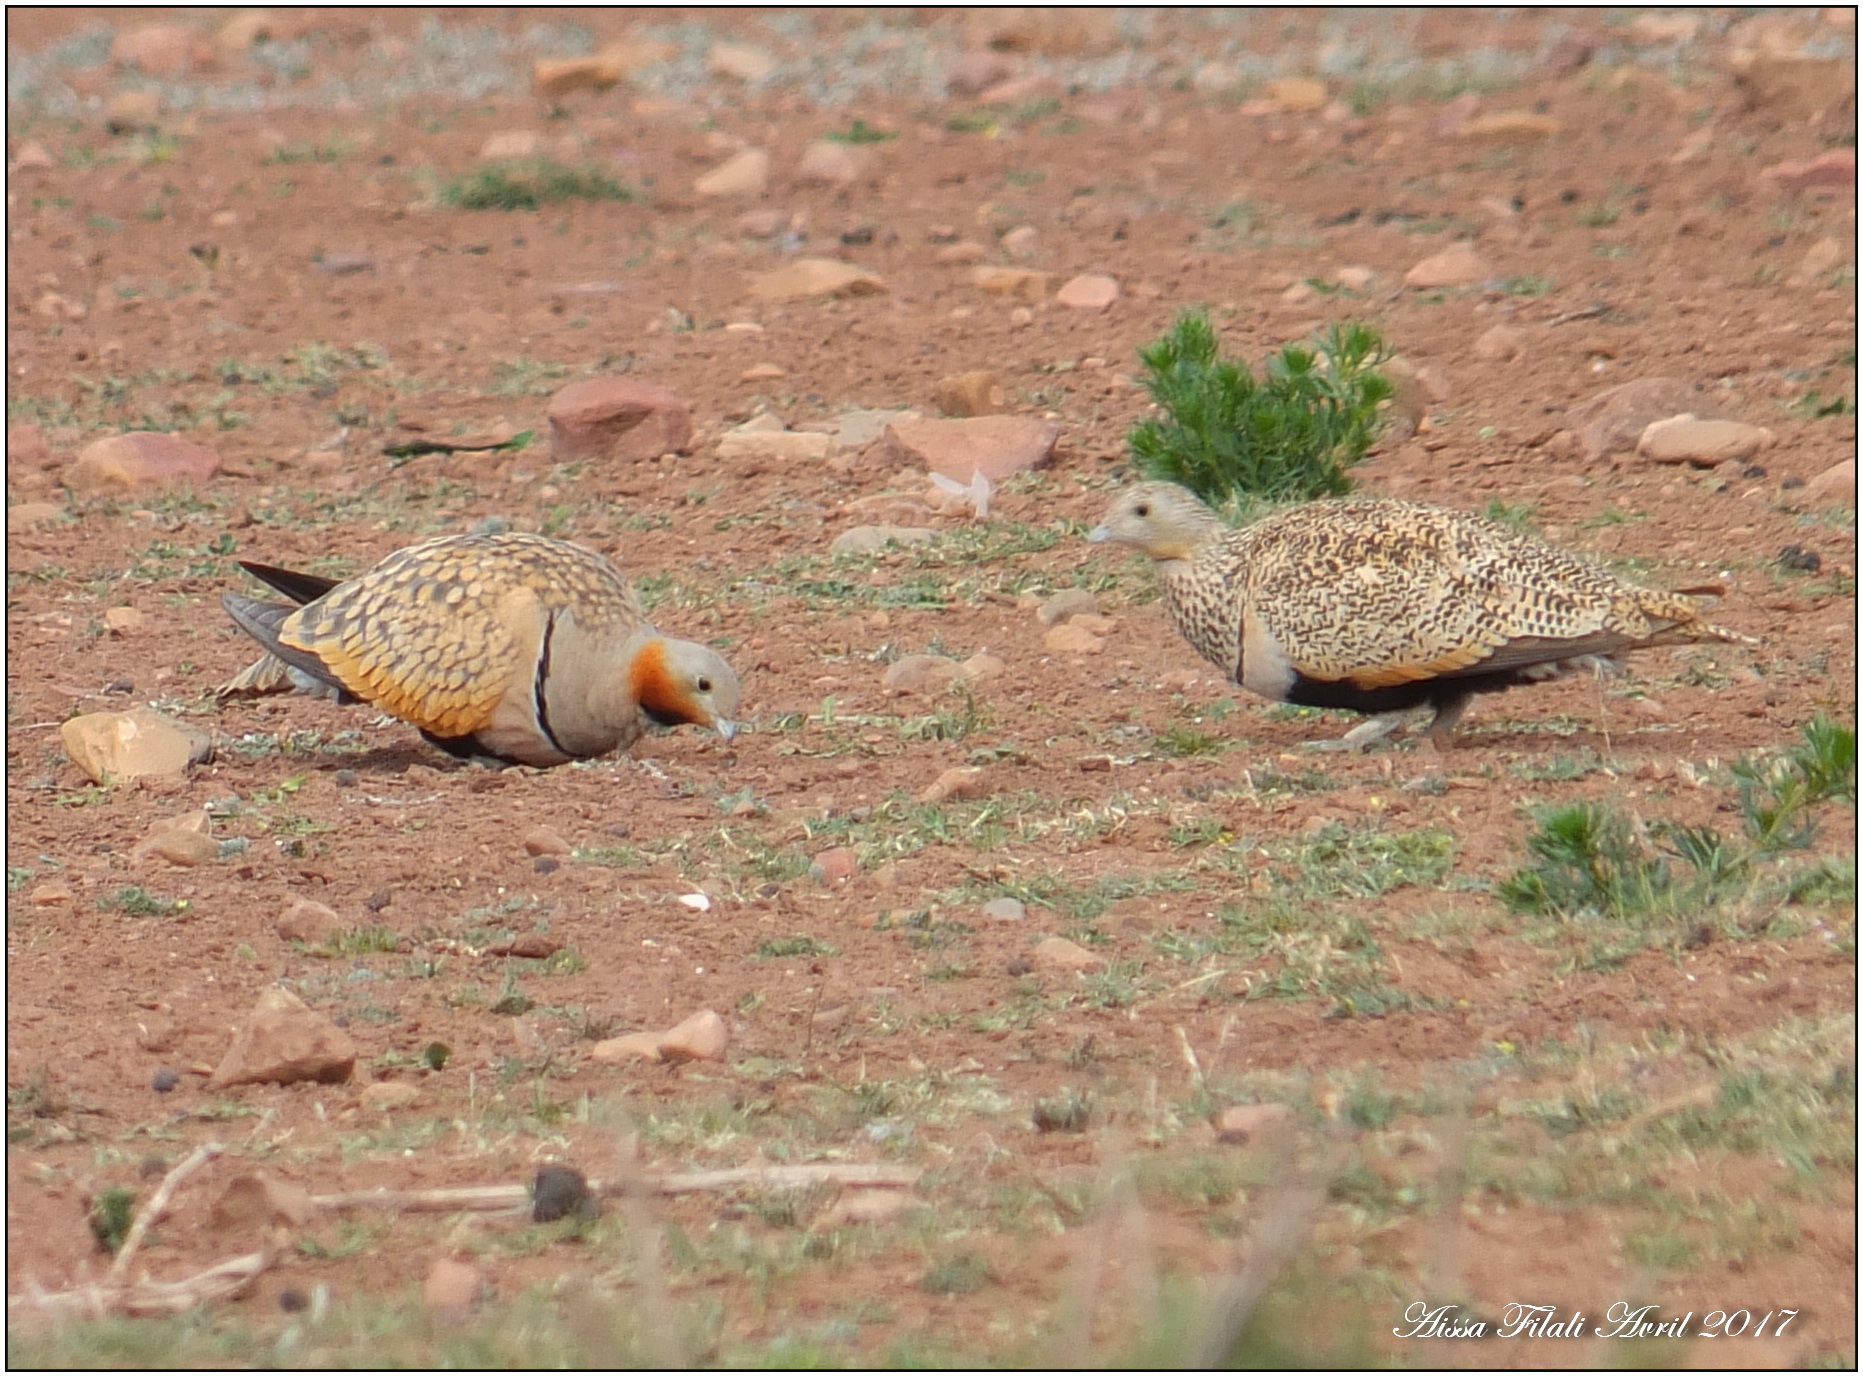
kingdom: Animalia
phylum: Chordata
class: Aves
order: Pteroclidiformes
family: Pteroclididae
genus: Pterocles
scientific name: Pterocles orientalis
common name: Black-bellied sandgrouse
